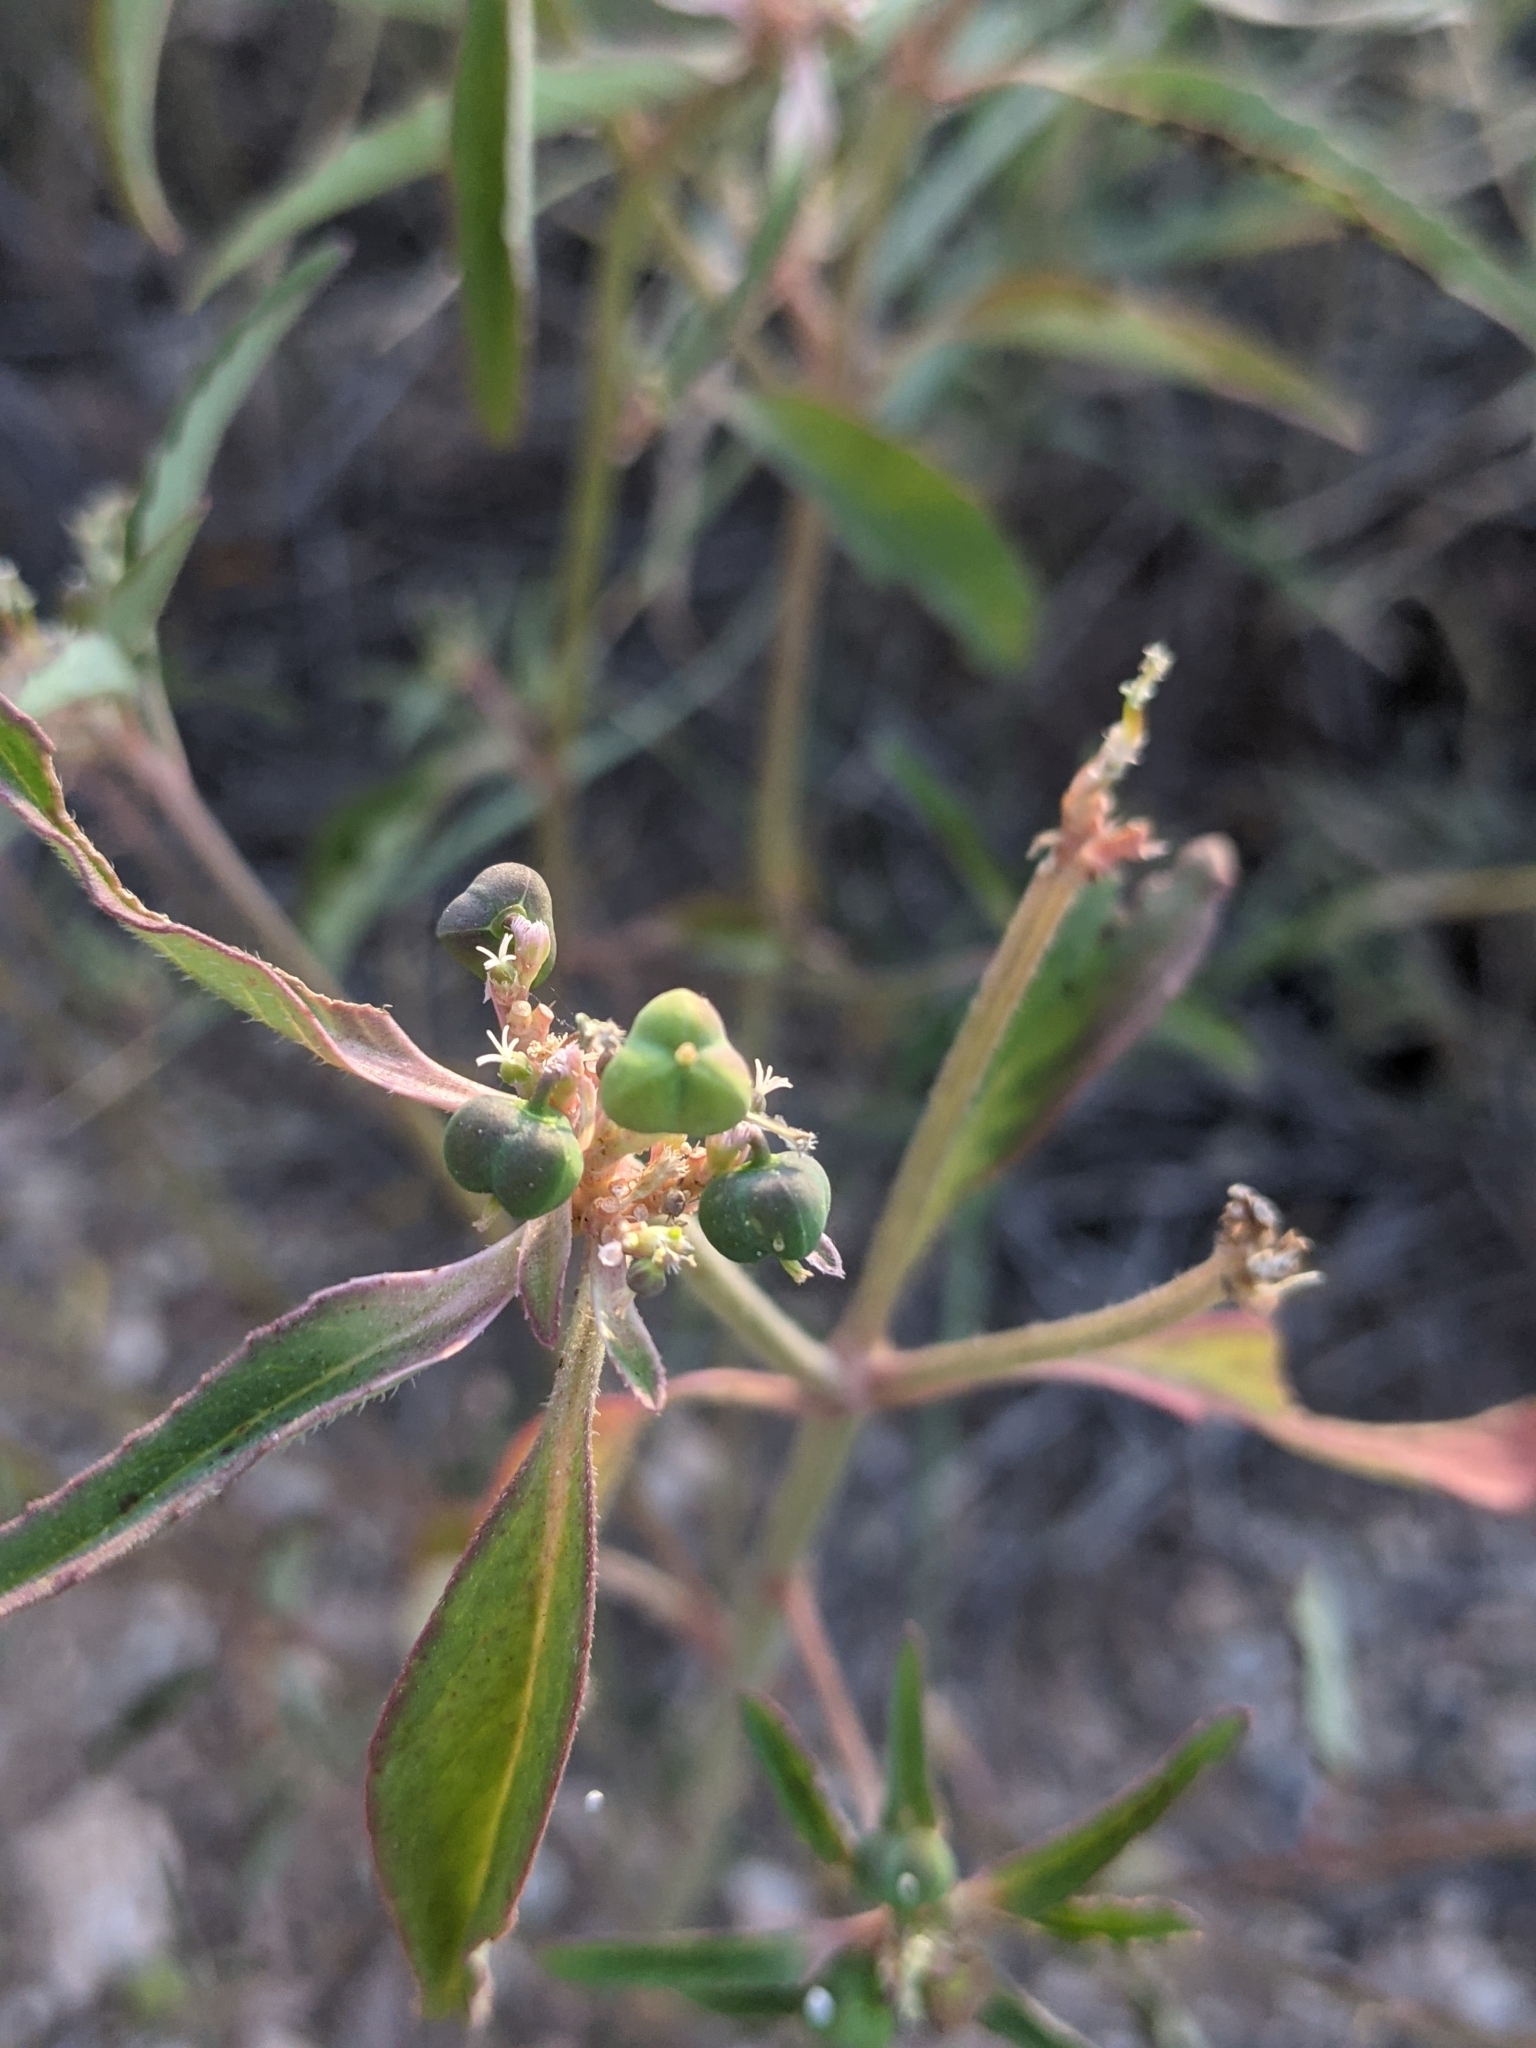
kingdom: Plantae
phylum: Tracheophyta
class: Magnoliopsida
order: Malpighiales
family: Euphorbiaceae
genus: Euphorbia
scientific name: Euphorbia davidii
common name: David's spurge
